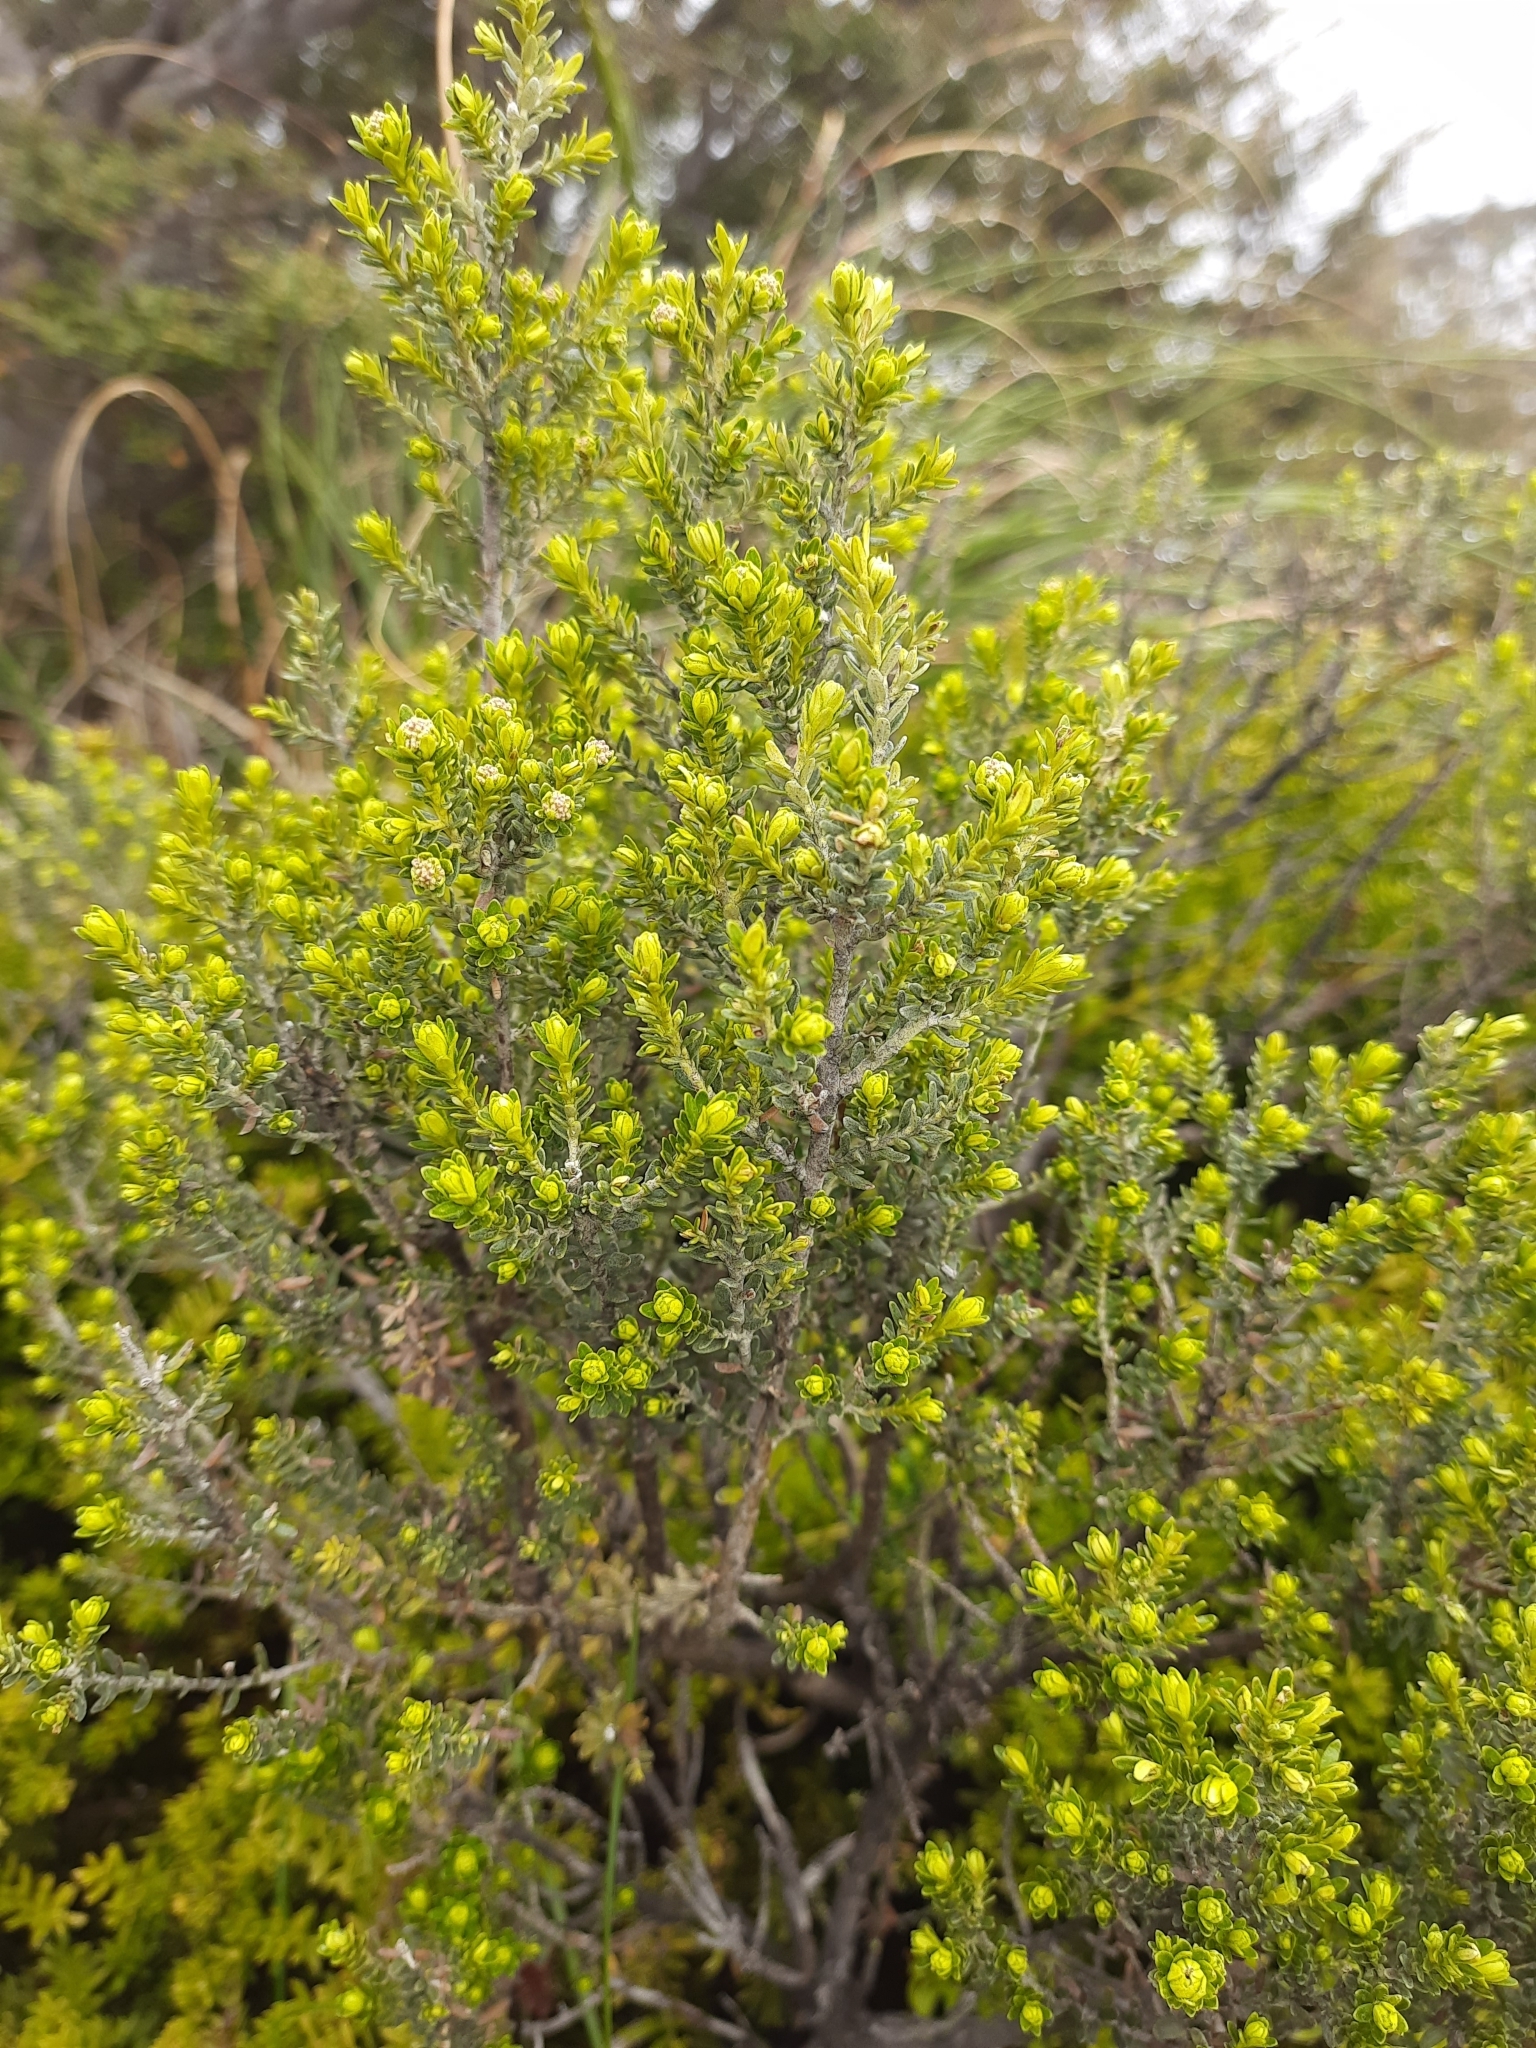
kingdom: Plantae
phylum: Tracheophyta
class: Magnoliopsida
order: Asterales
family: Asteraceae
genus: Ozothamnus
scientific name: Ozothamnus leptophyllus
